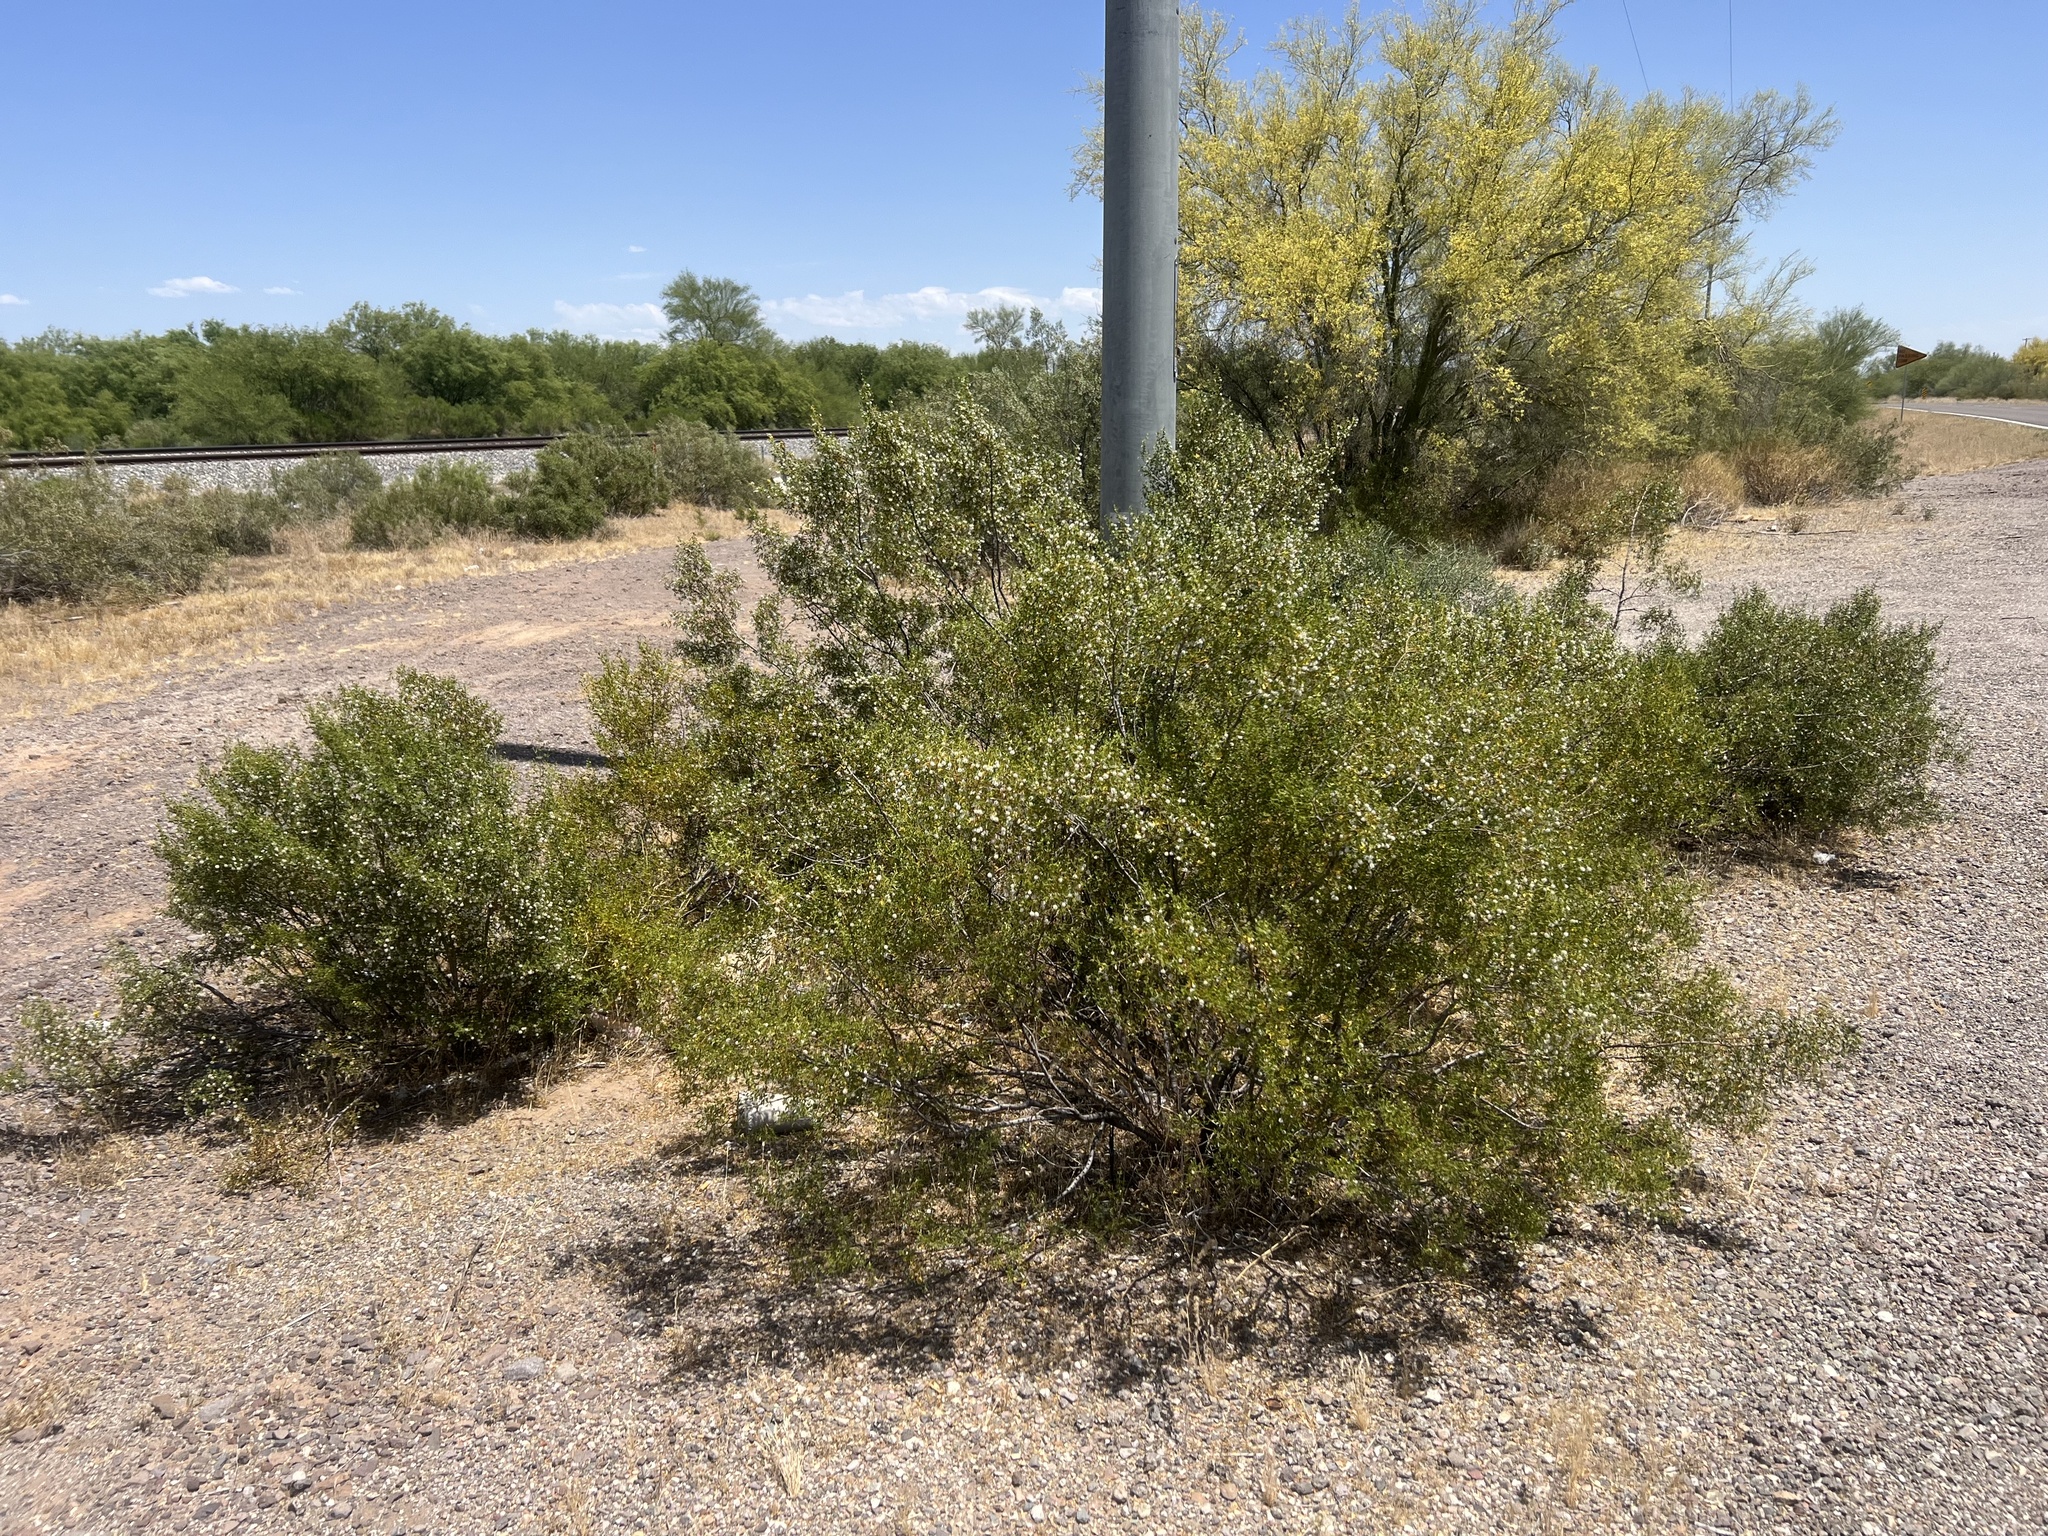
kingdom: Plantae
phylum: Tracheophyta
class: Magnoliopsida
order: Zygophyllales
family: Zygophyllaceae
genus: Larrea
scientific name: Larrea tridentata
